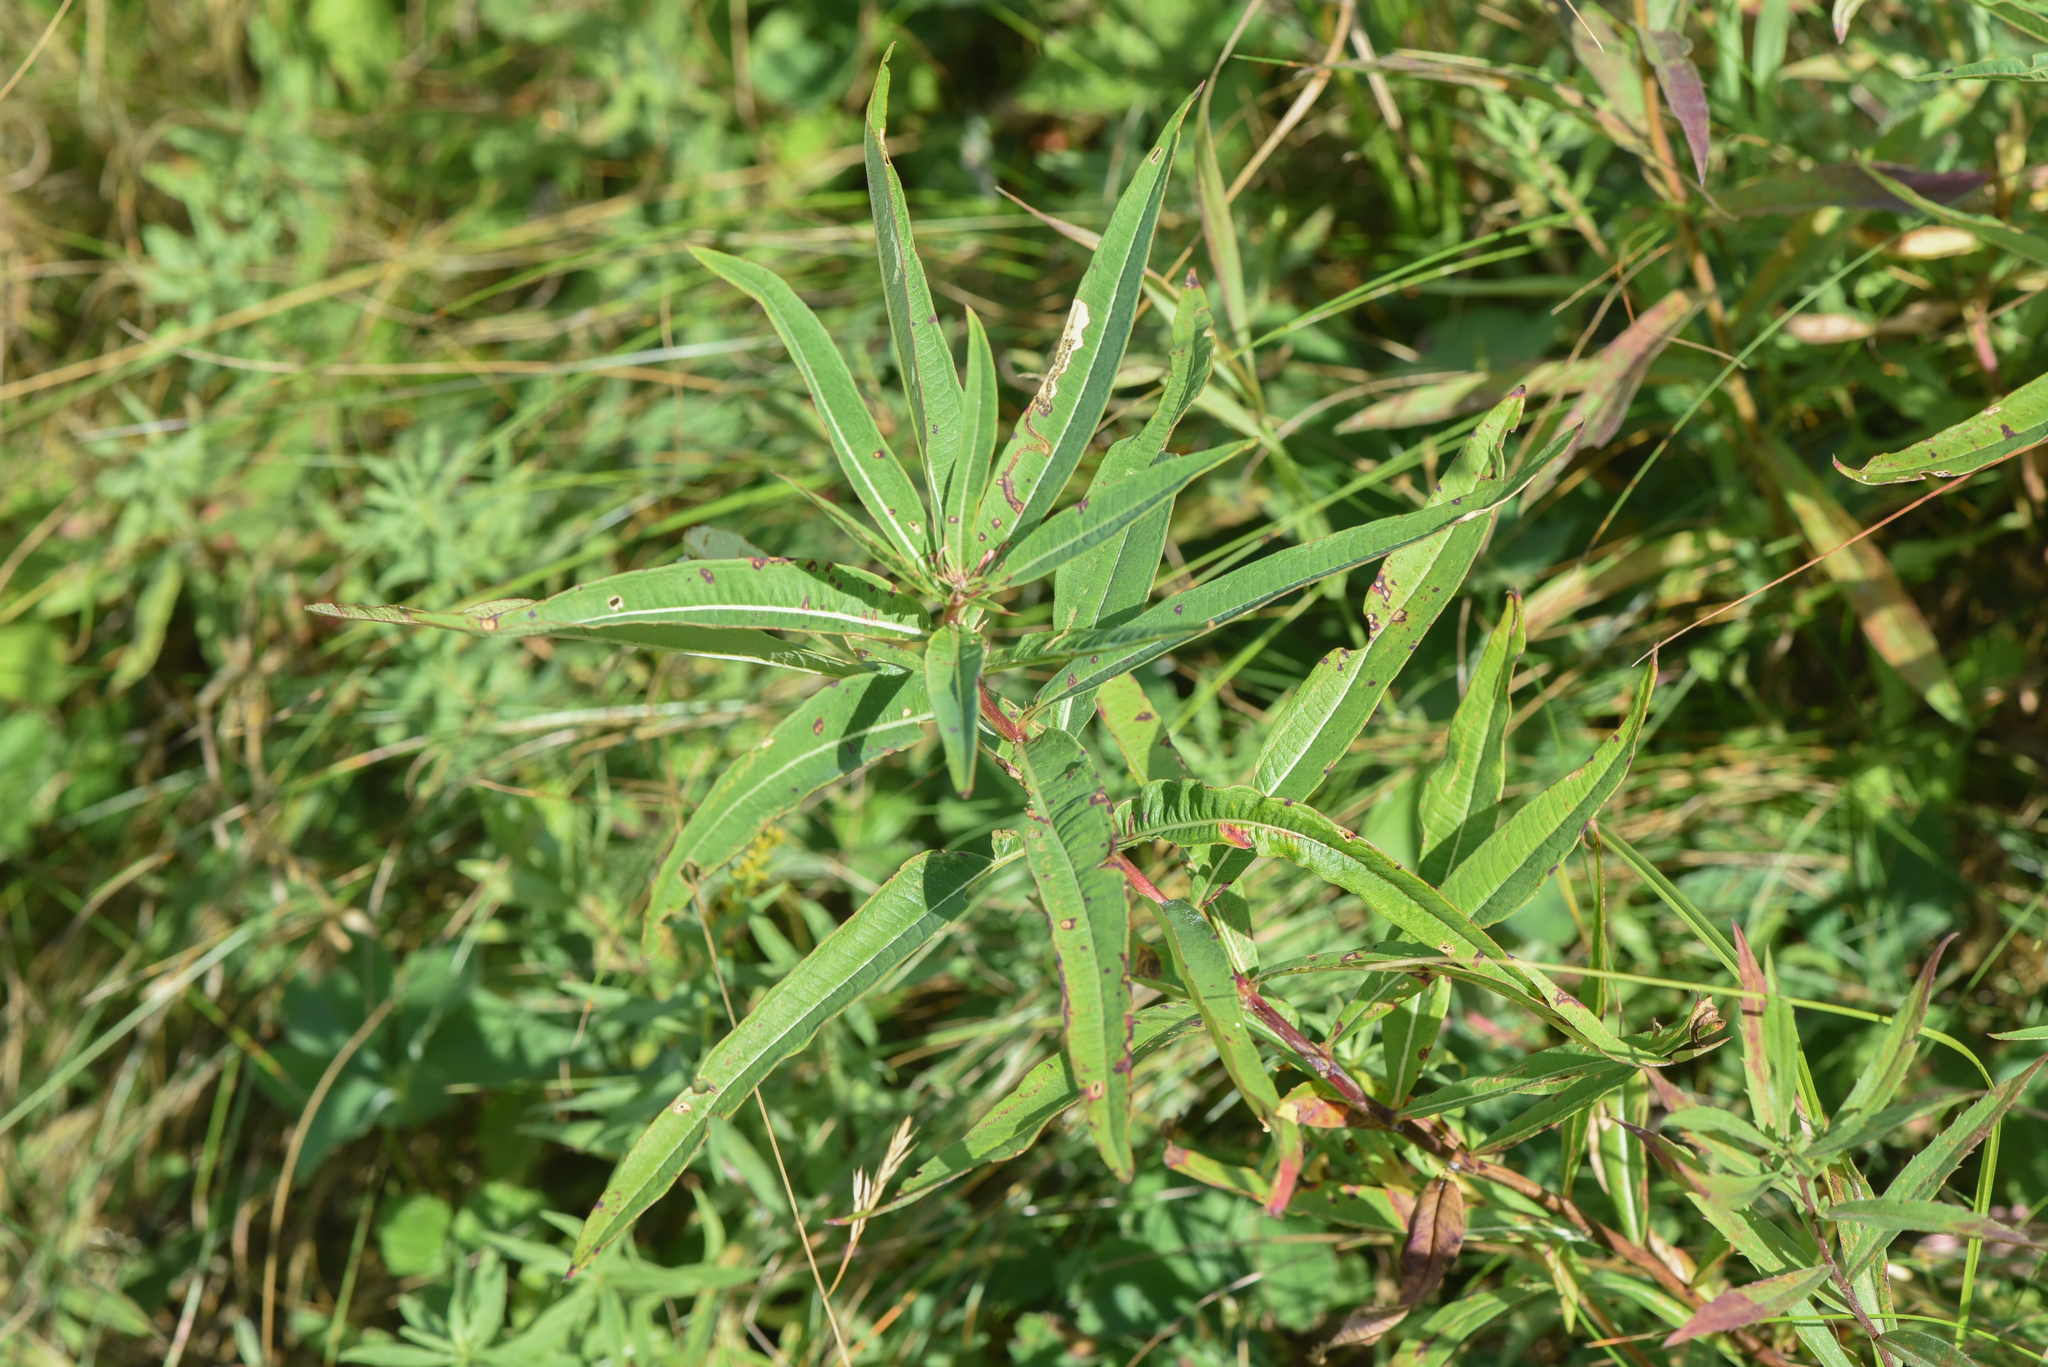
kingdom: Plantae
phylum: Tracheophyta
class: Magnoliopsida
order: Myrtales
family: Onagraceae
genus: Chamaenerion
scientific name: Chamaenerion angustifolium
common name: Fireweed
